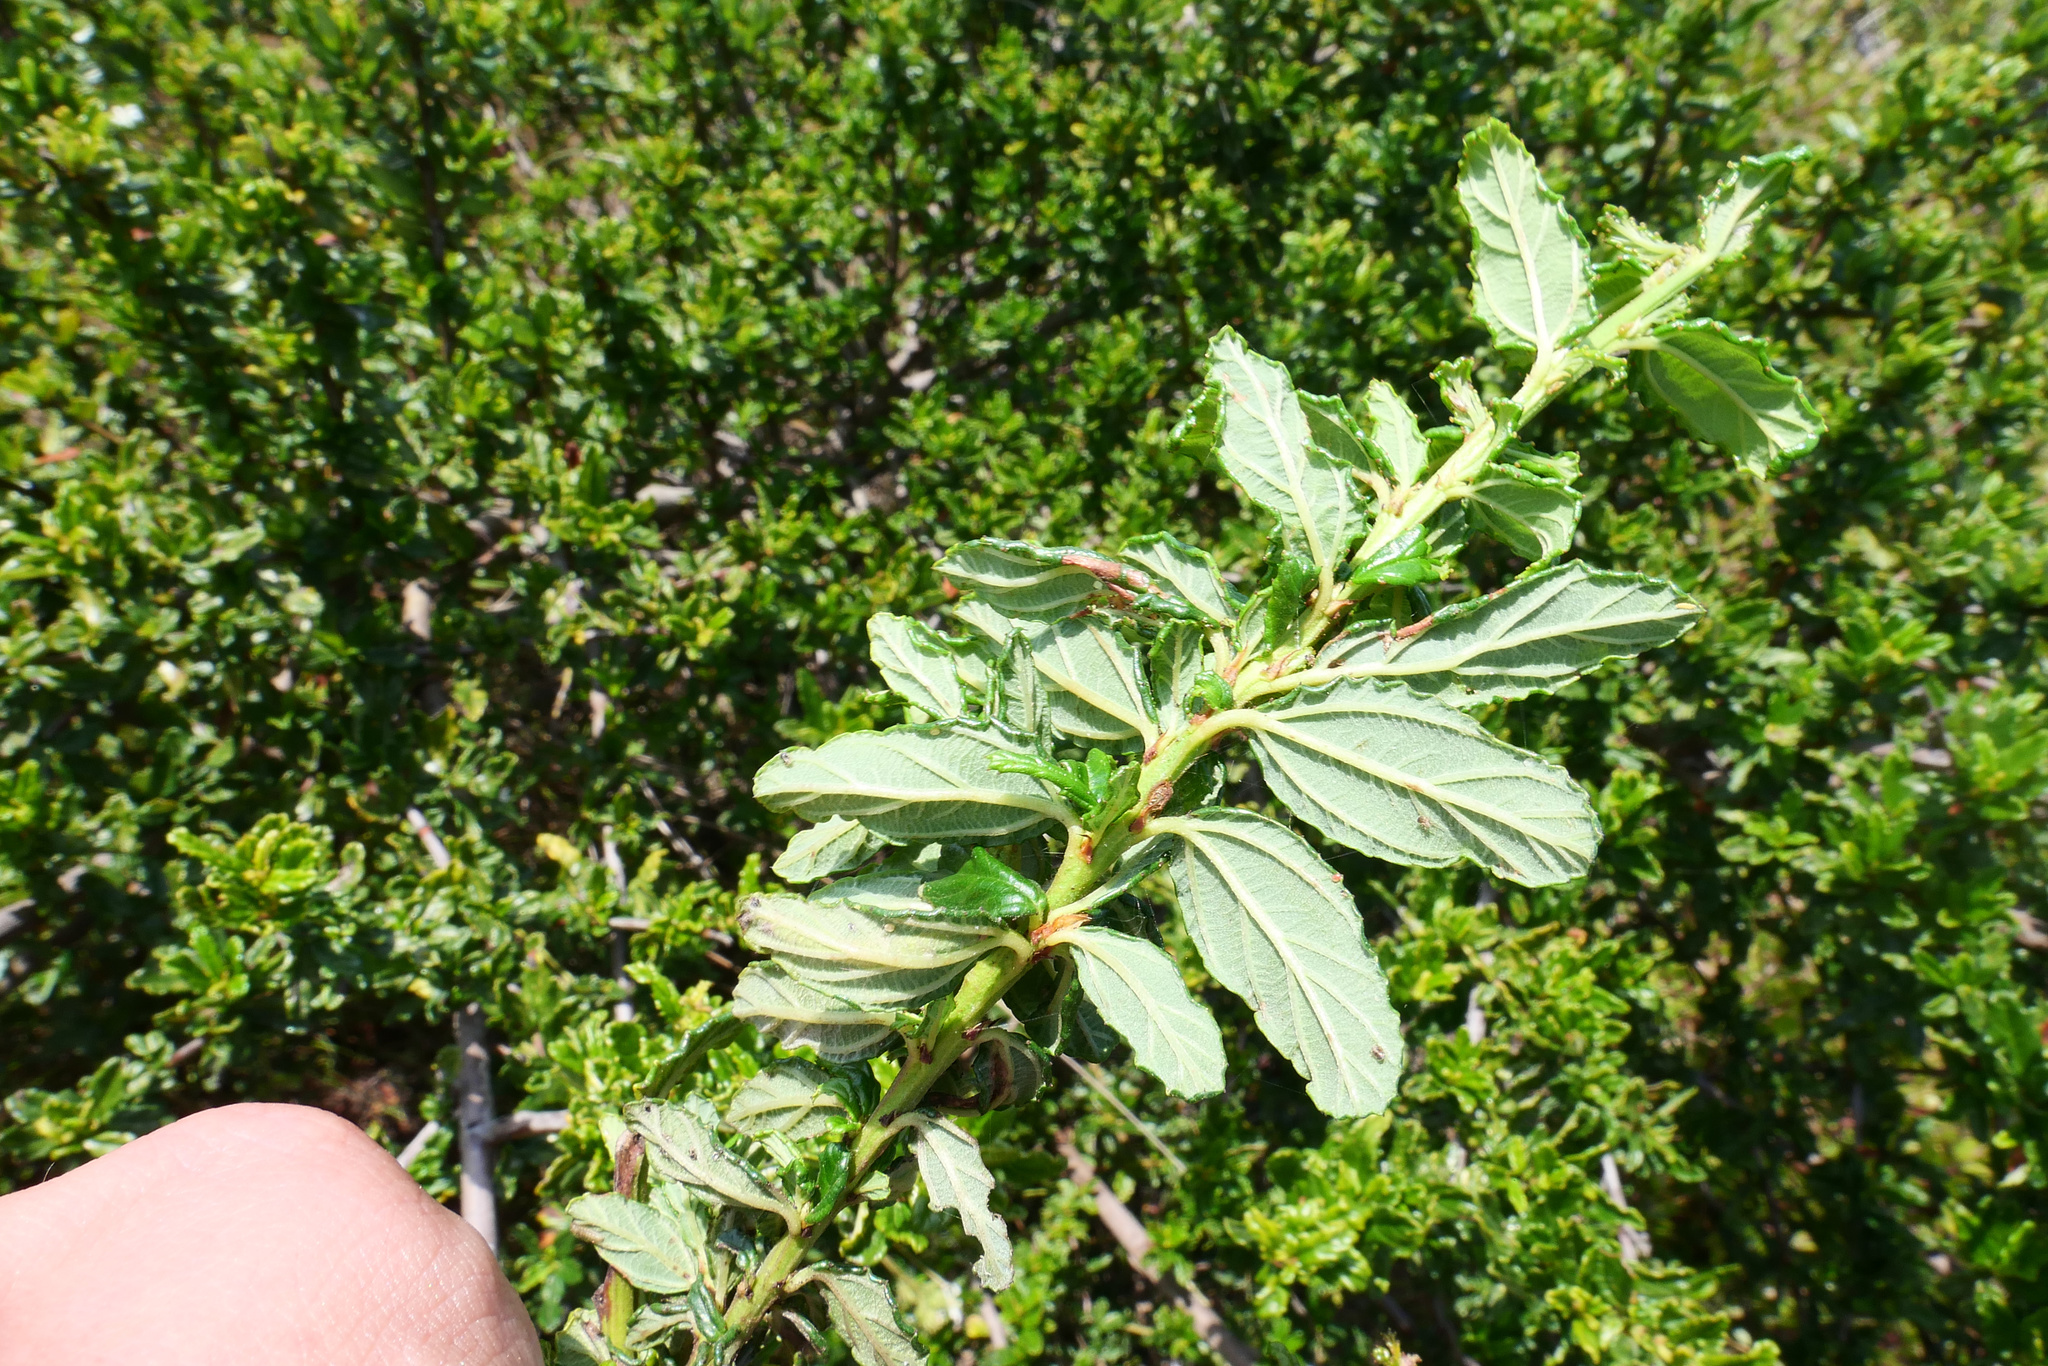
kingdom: Plantae
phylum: Tracheophyta
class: Magnoliopsida
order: Rosales
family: Rhamnaceae
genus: Ceanothus
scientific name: Ceanothus thyrsiflorus
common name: California-lilac
